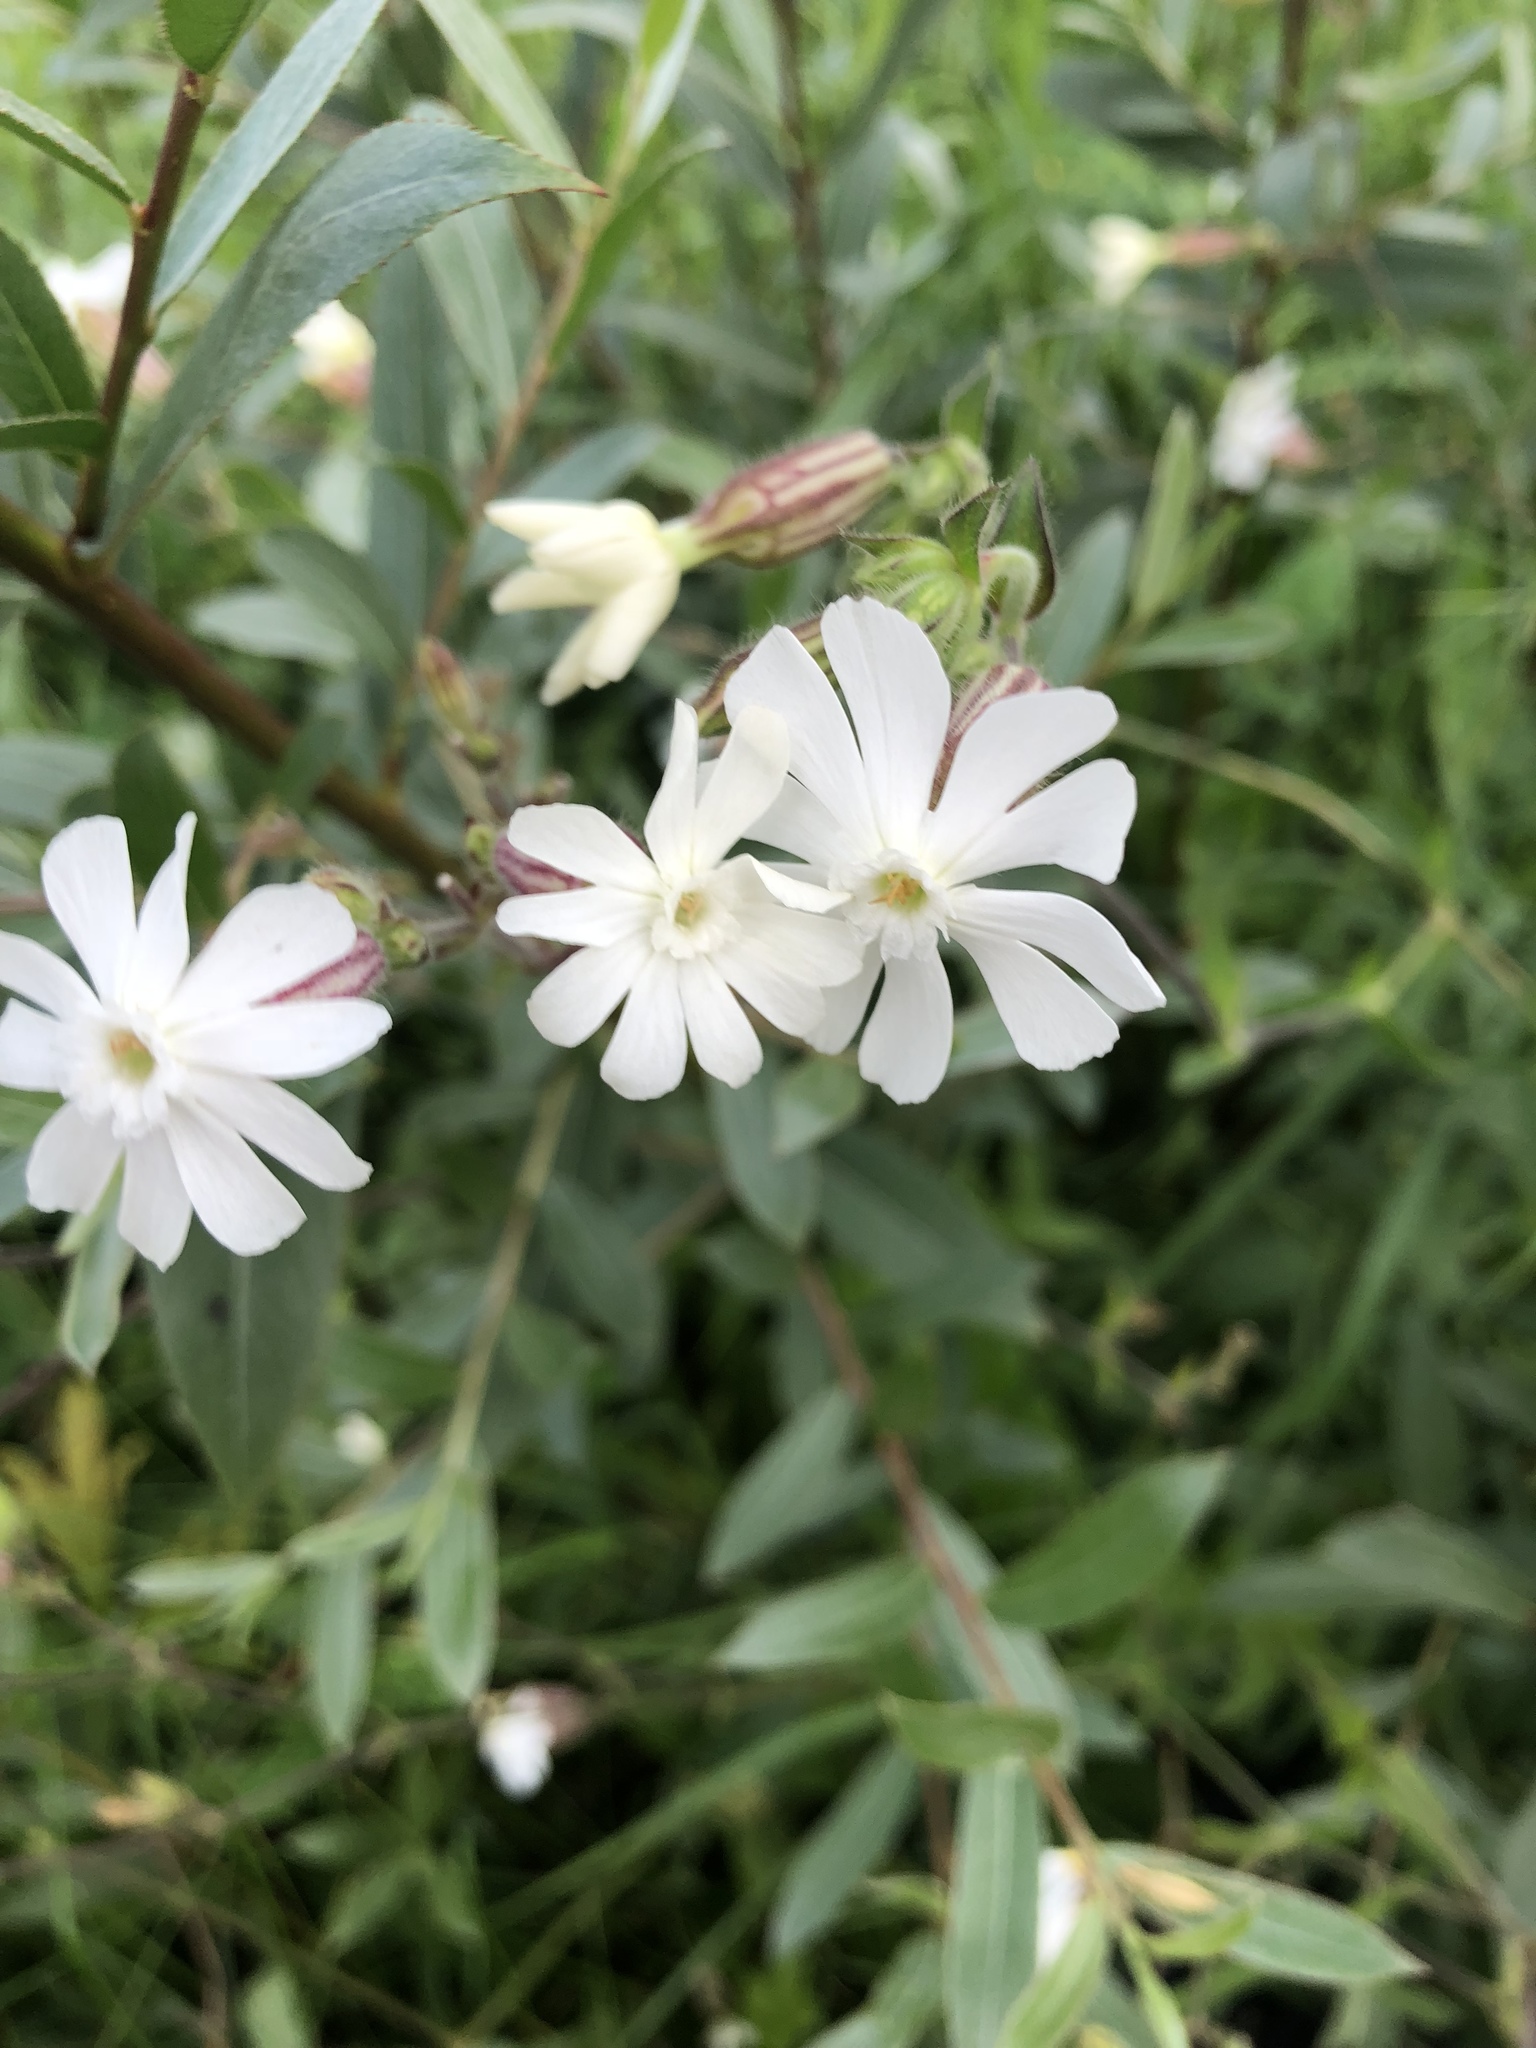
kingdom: Plantae
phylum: Tracheophyta
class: Magnoliopsida
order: Caryophyllales
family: Caryophyllaceae
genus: Silene
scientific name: Silene latifolia
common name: White campion
